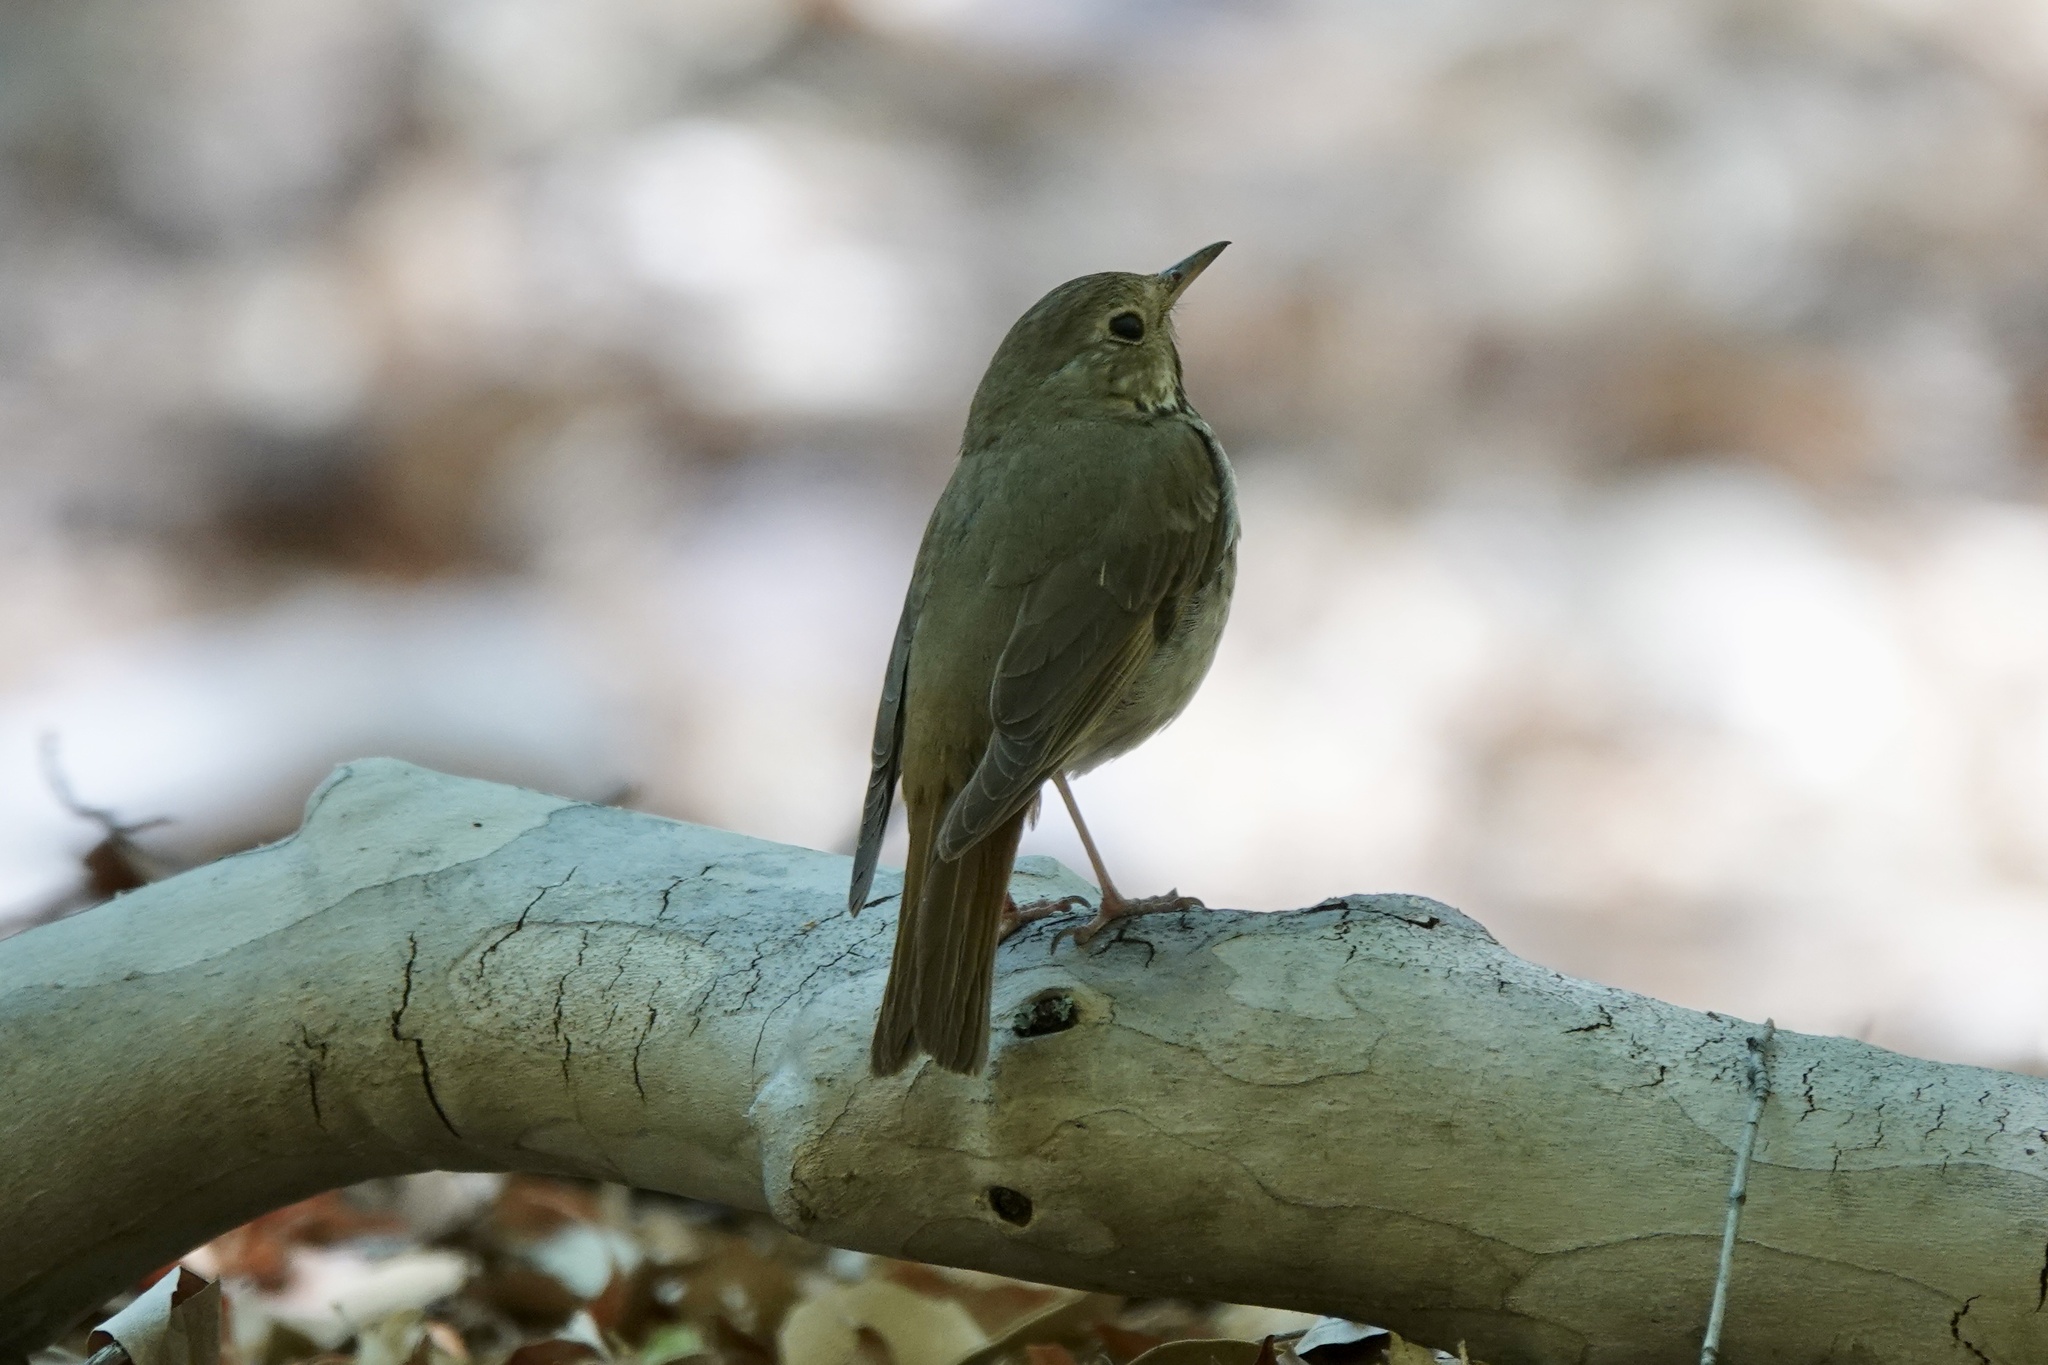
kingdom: Animalia
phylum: Chordata
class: Aves
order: Passeriformes
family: Turdidae
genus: Catharus
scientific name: Catharus guttatus
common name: Hermit thrush
